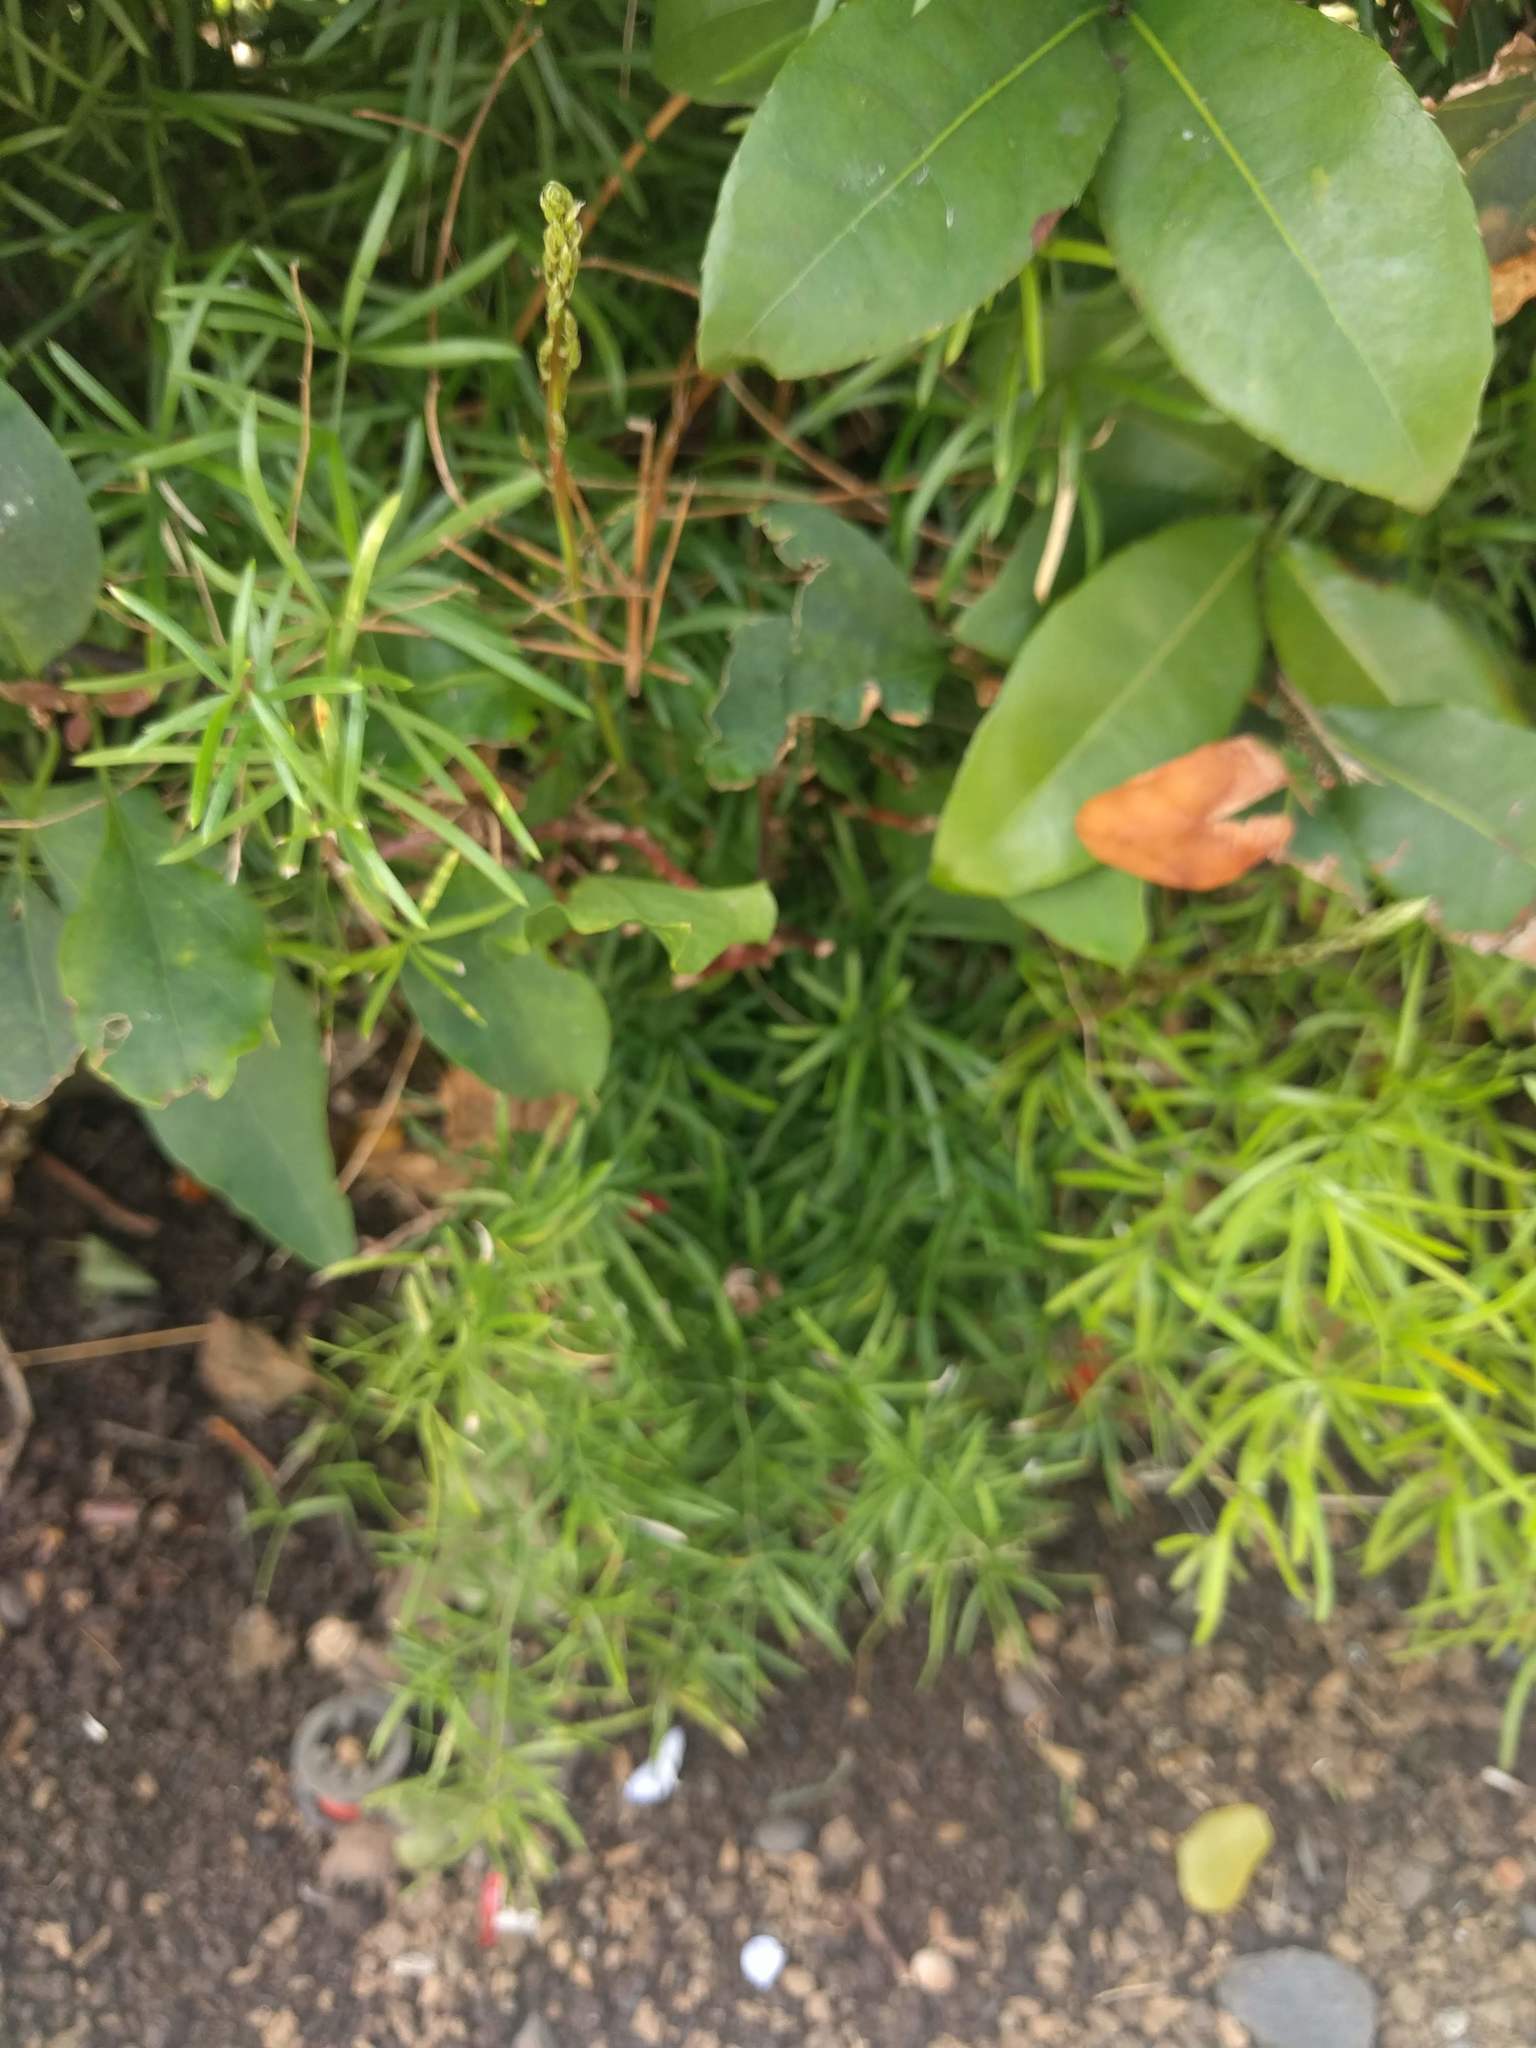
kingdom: Plantae
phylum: Tracheophyta
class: Liliopsida
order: Asparagales
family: Asparagaceae
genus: Asparagus
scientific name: Asparagus aethiopicus
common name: Sprenger's asparagus fern
